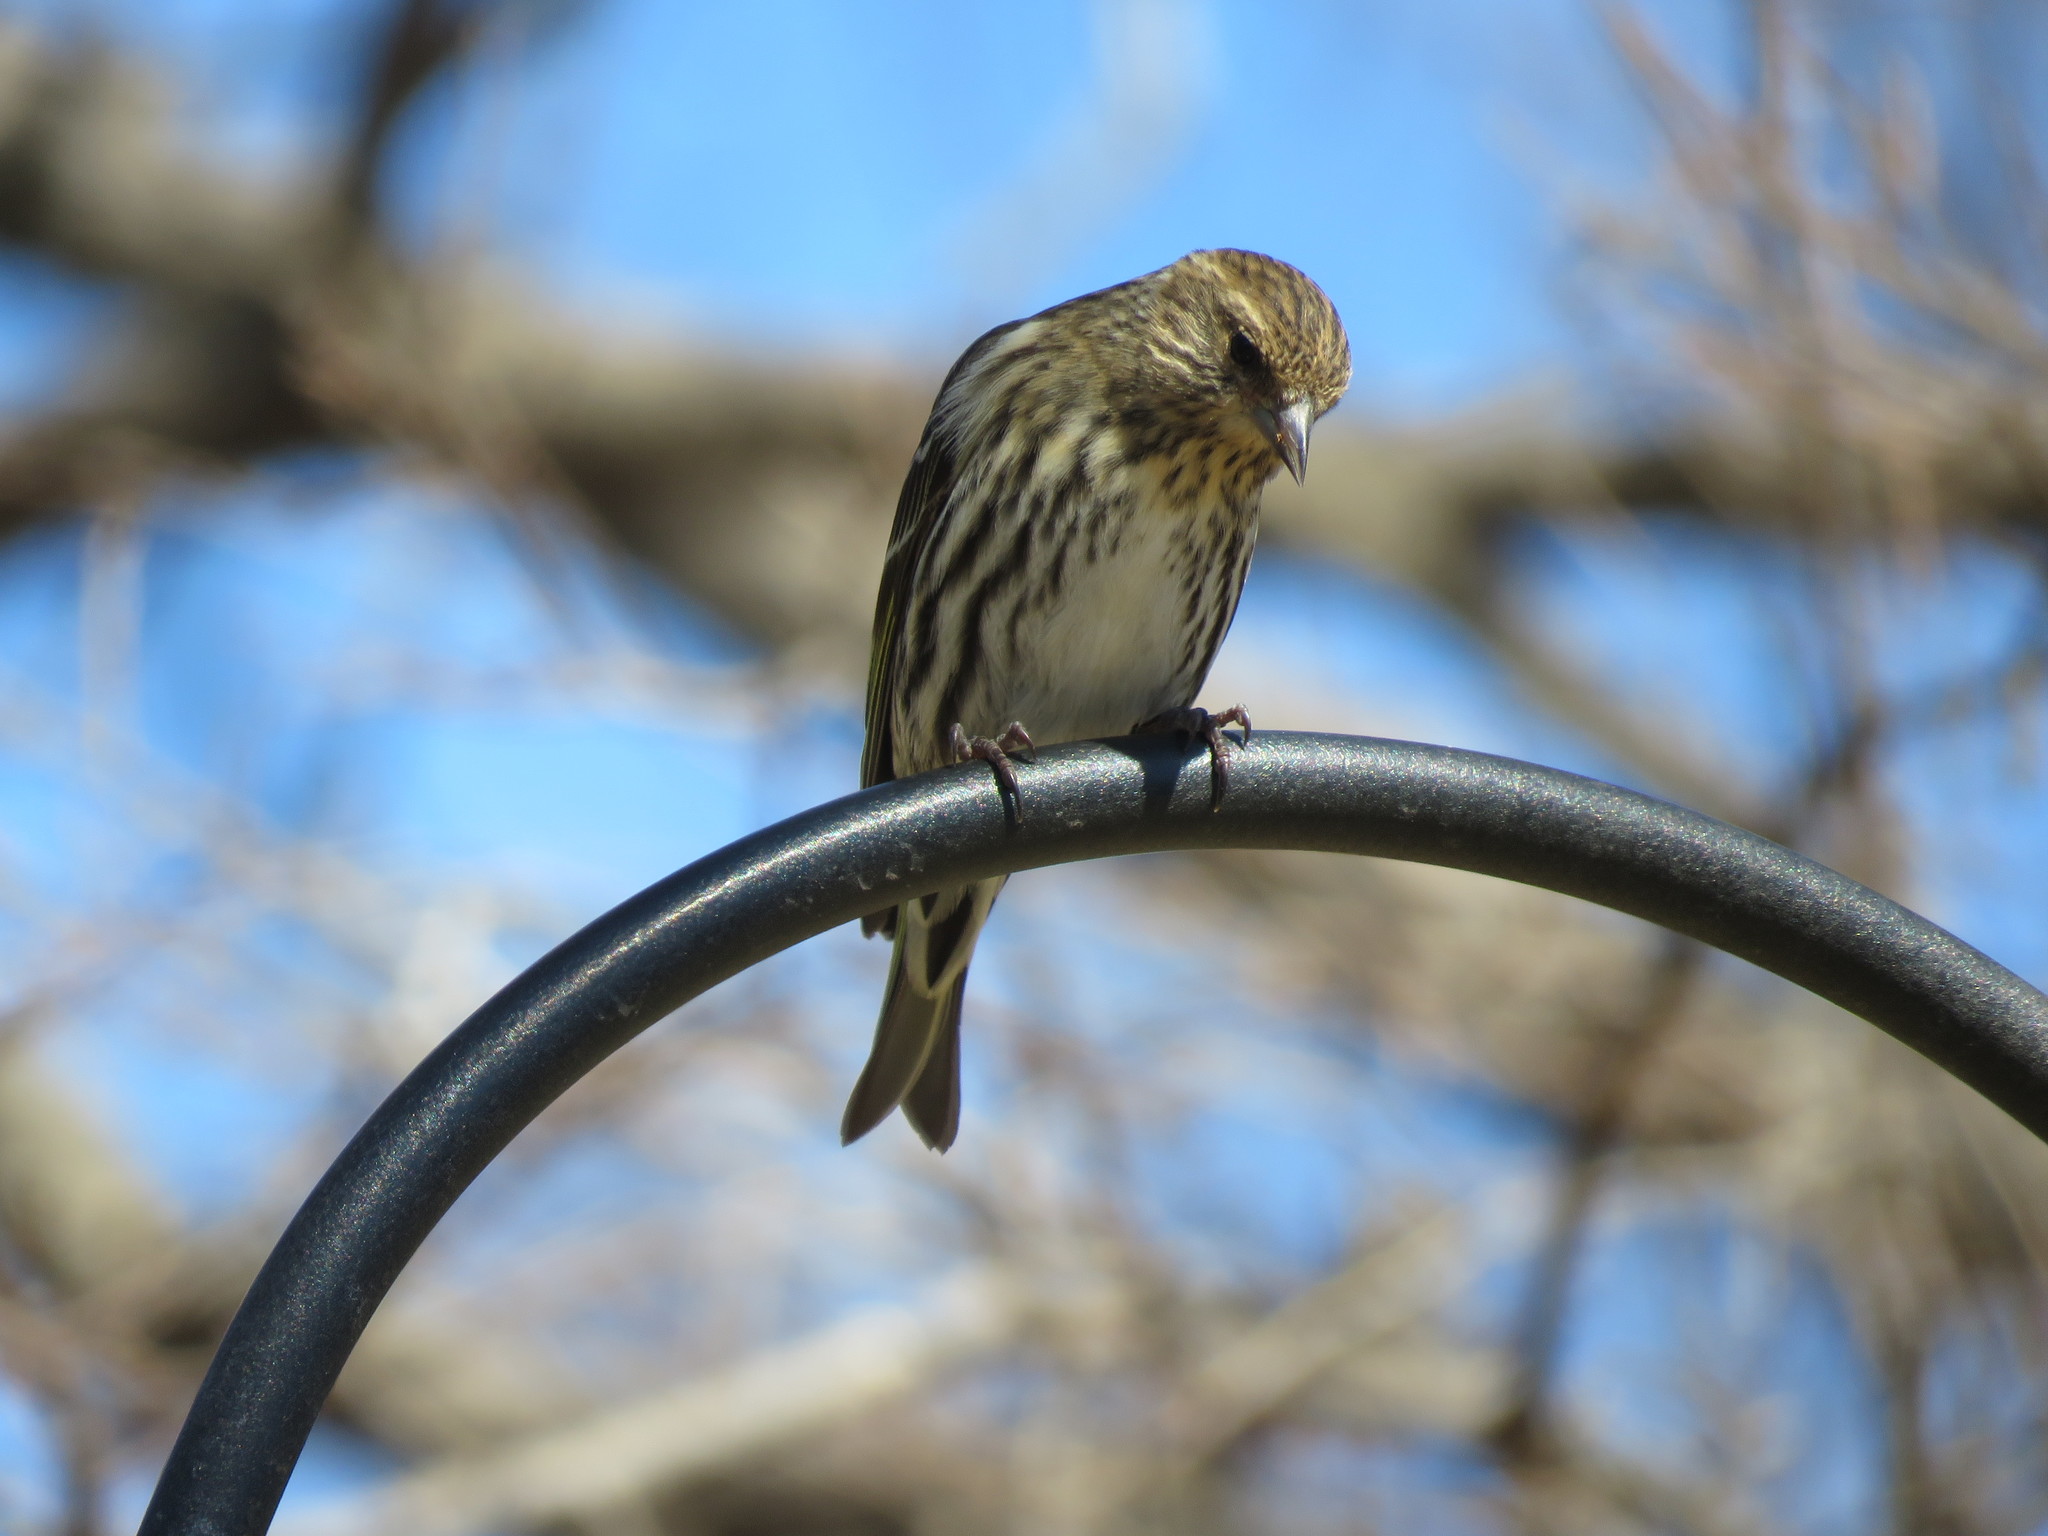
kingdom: Animalia
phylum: Chordata
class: Aves
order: Passeriformes
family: Fringillidae
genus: Spinus
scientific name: Spinus pinus
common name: Pine siskin
